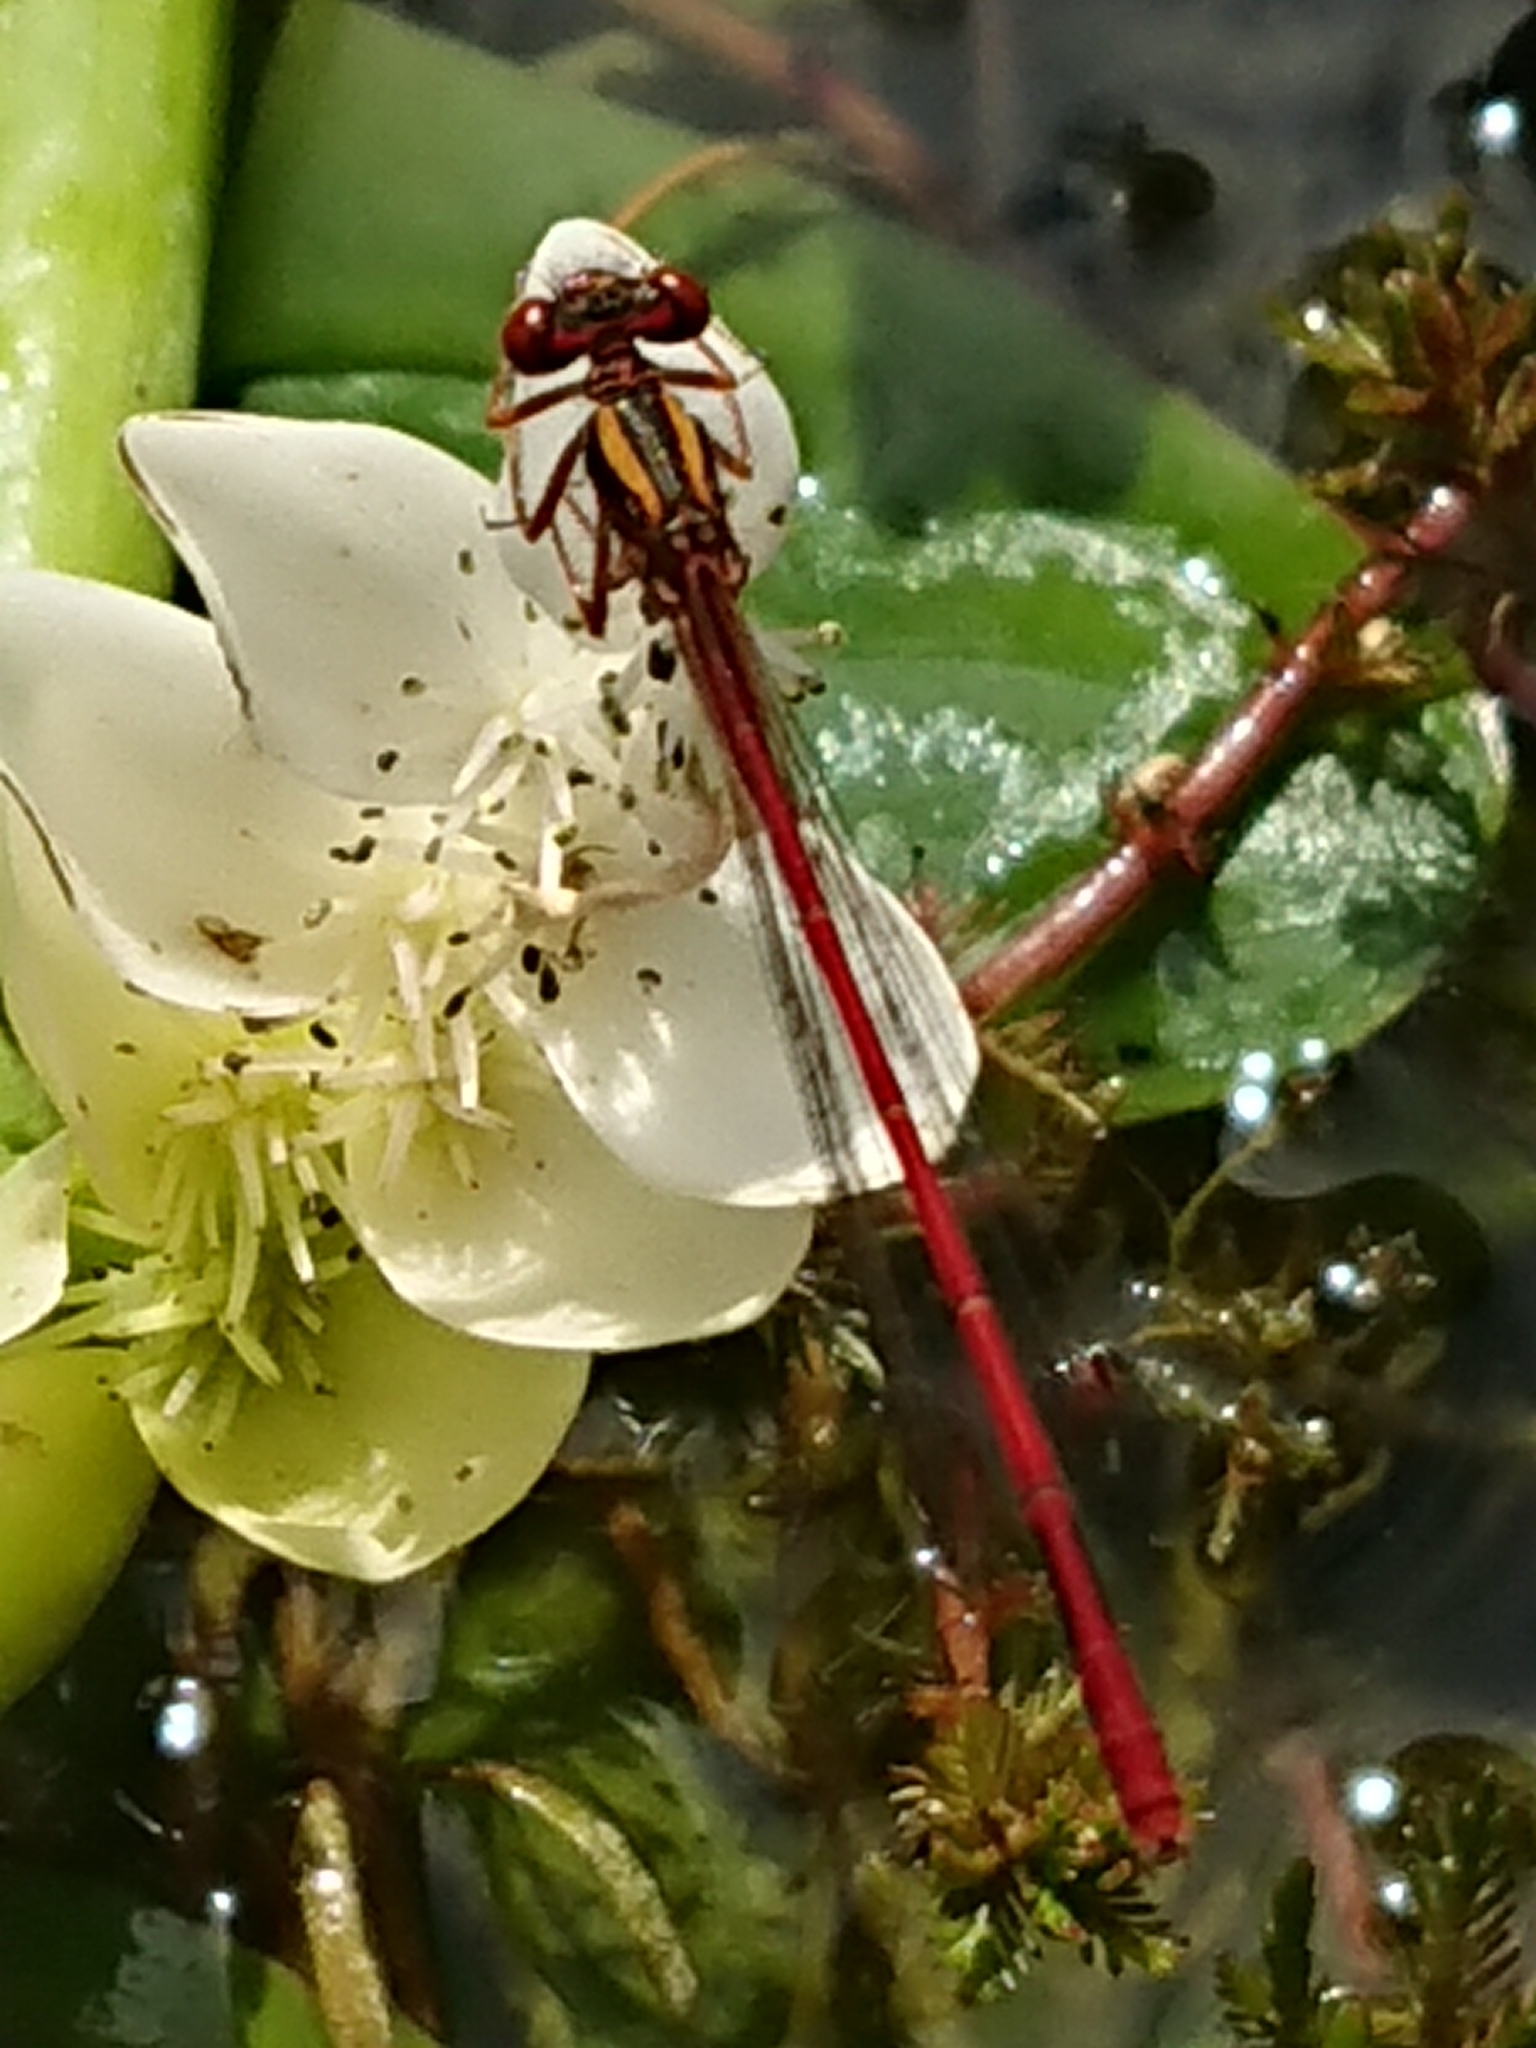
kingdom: Animalia
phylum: Arthropoda
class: Insecta
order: Odonata
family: Coenagrionidae
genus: Xanthocnemis
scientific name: Xanthocnemis zealandica
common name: Common redcoat damselfly
